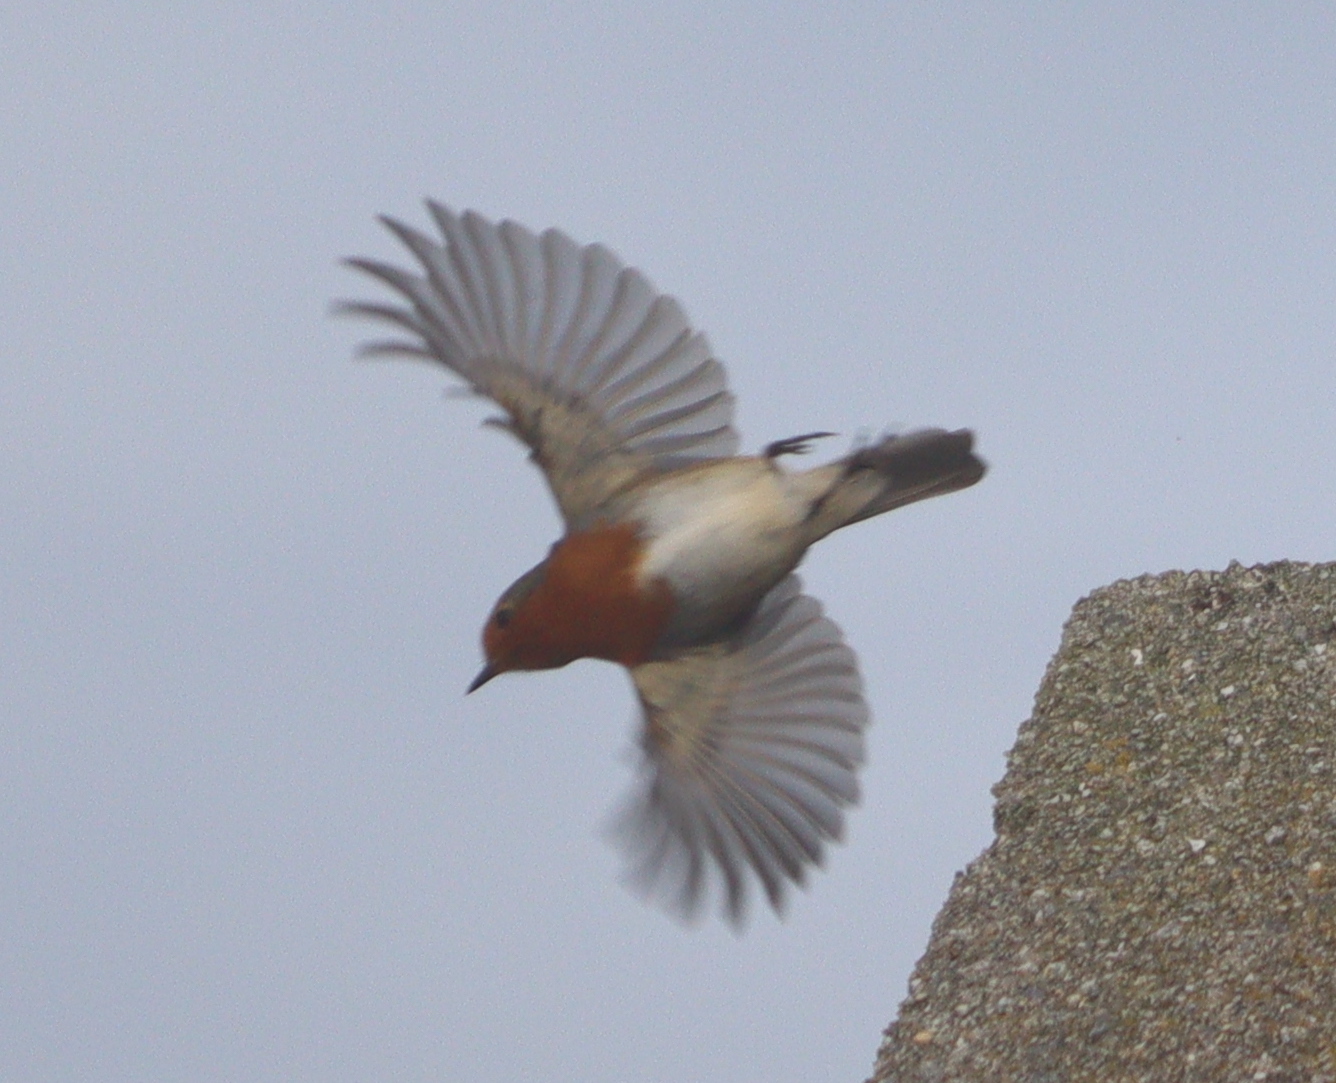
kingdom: Animalia
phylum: Chordata
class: Aves
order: Passeriformes
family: Muscicapidae
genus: Erithacus
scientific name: Erithacus rubecula
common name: European robin
